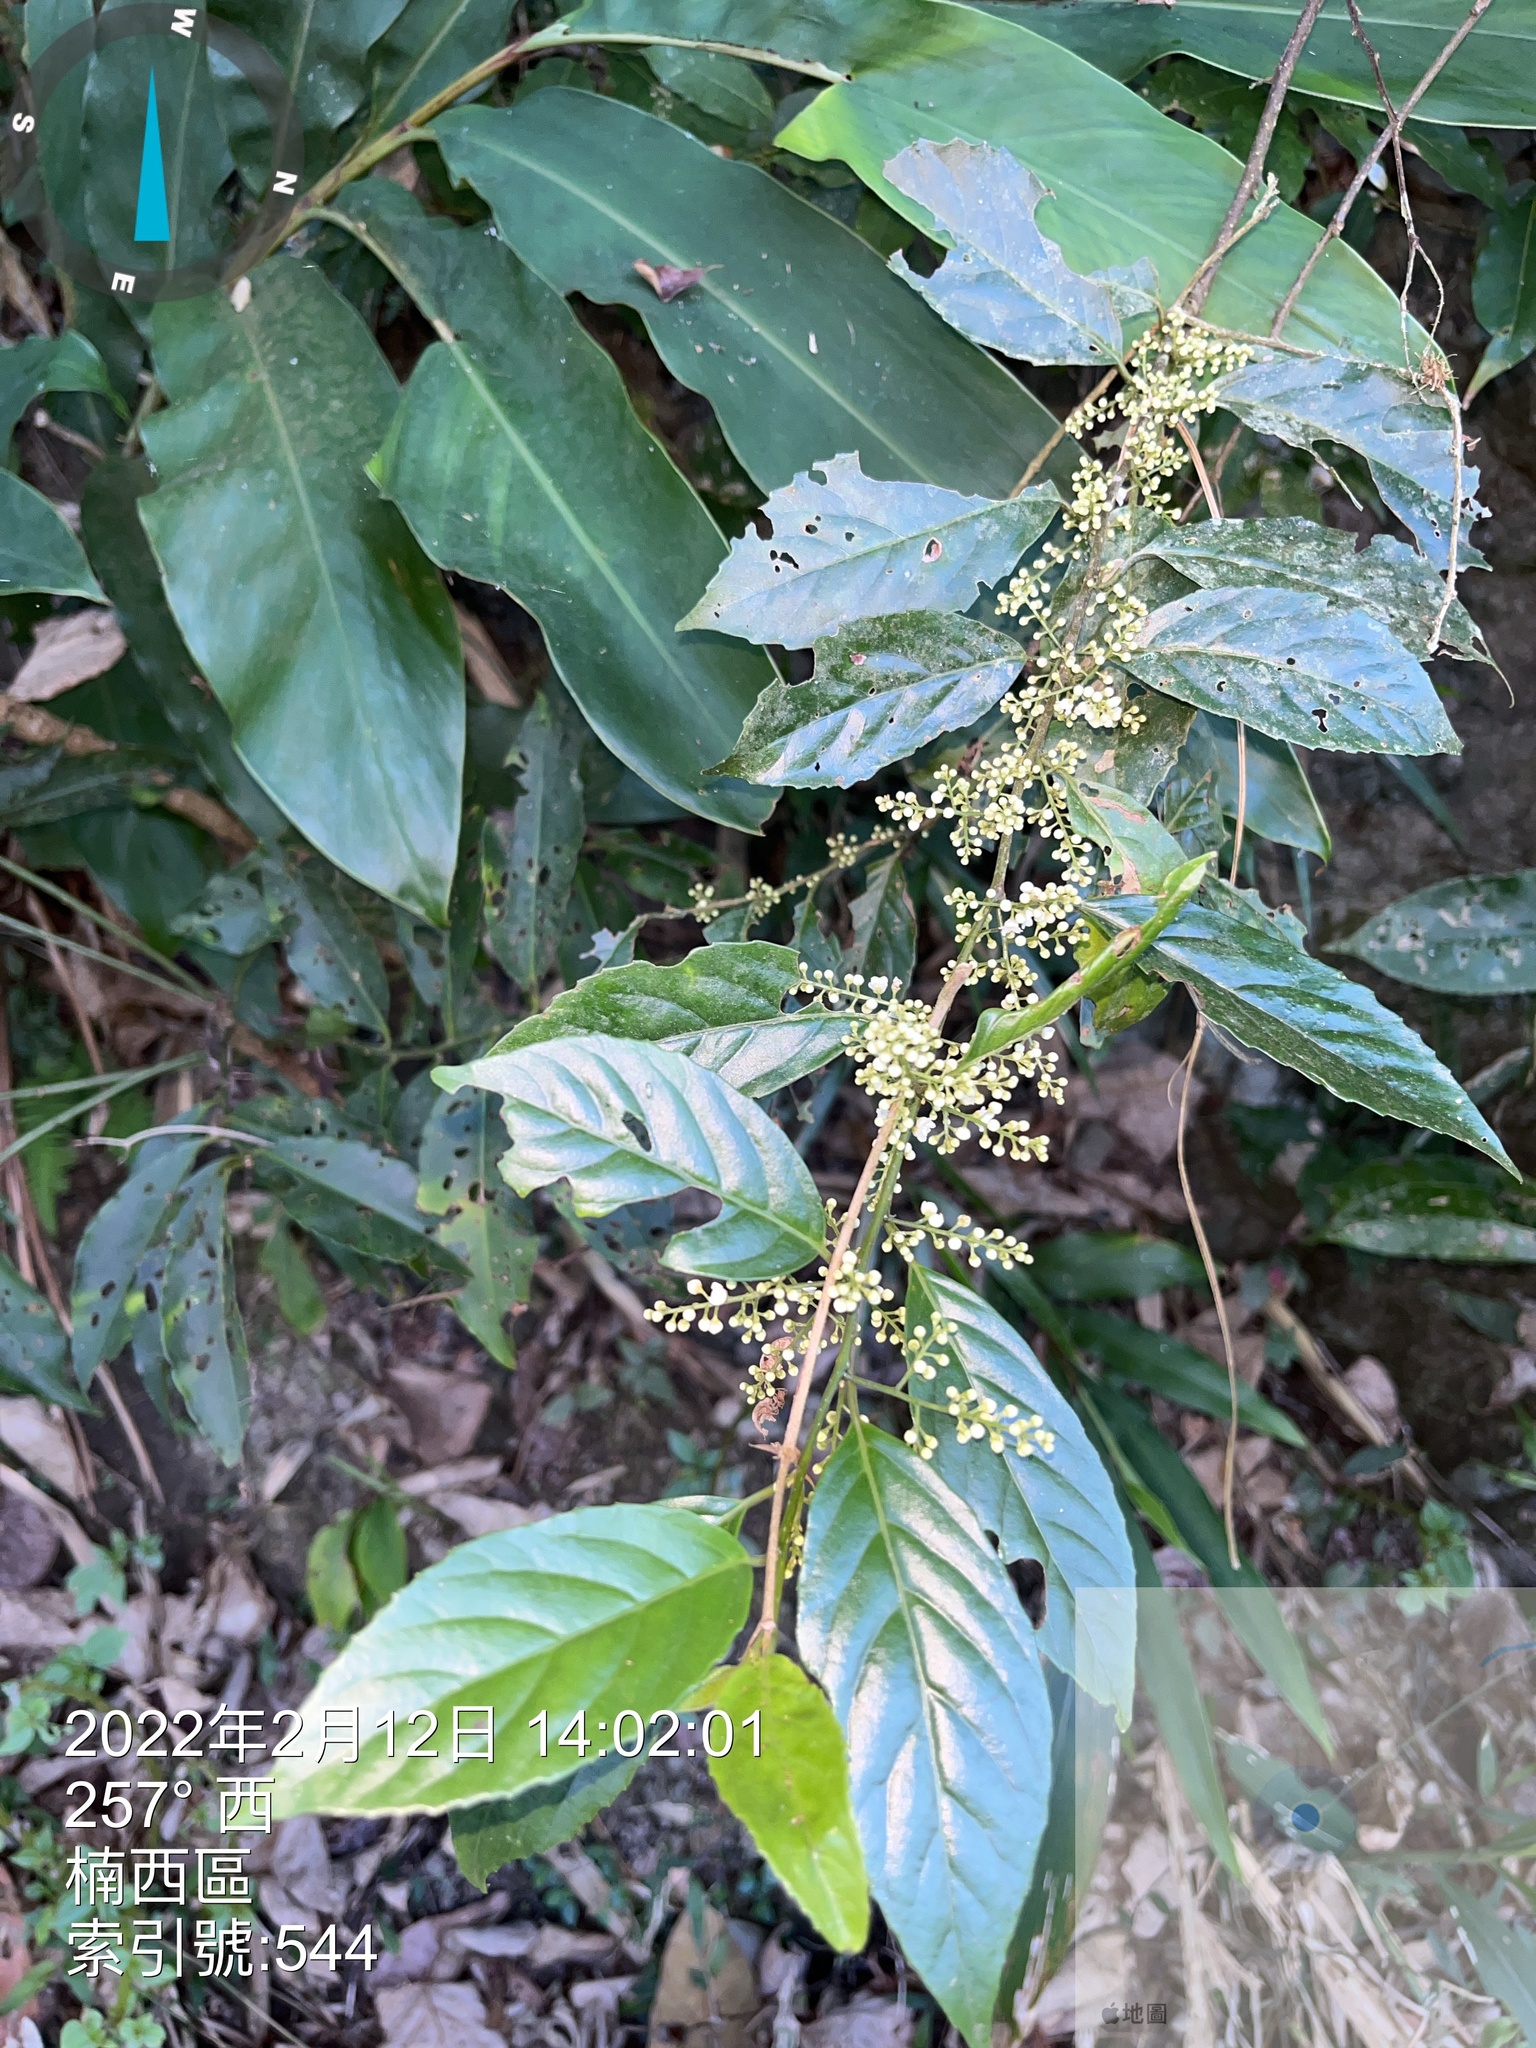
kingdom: Plantae
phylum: Tracheophyta
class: Magnoliopsida
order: Ericales
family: Primulaceae
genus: Maesa
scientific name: Maesa perlaria
